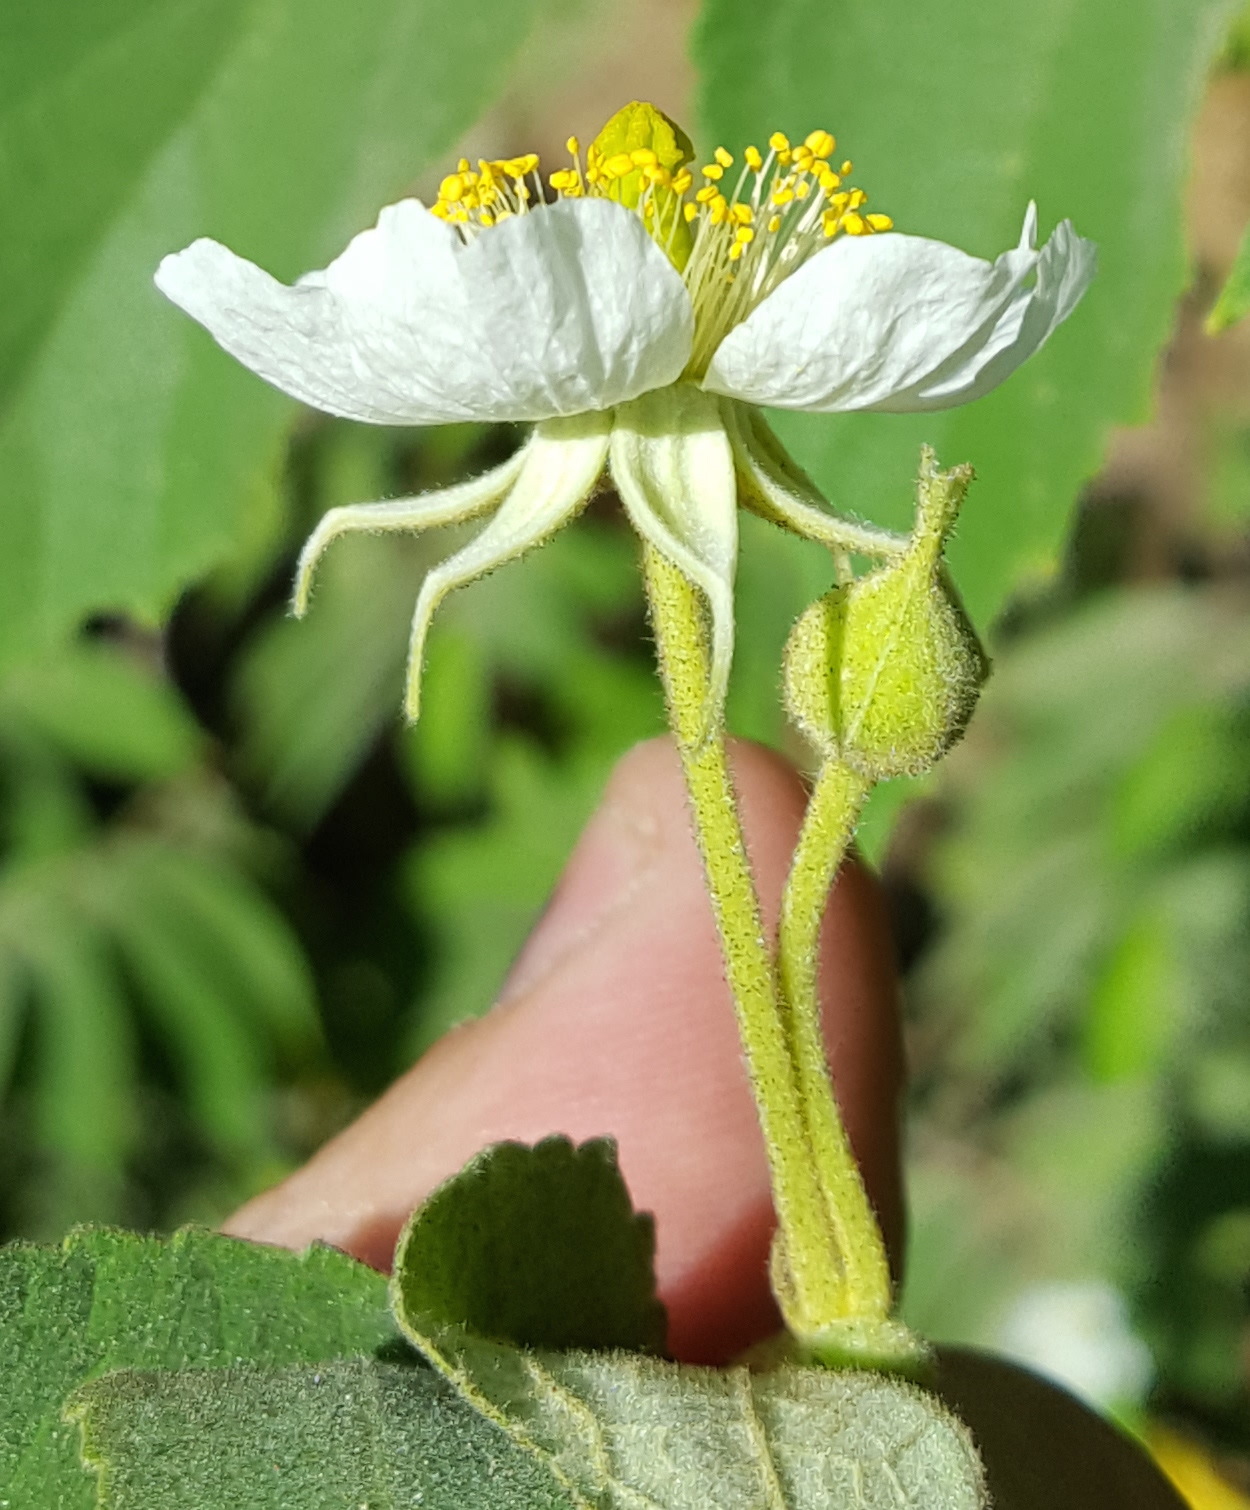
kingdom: Plantae
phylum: Tracheophyta
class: Magnoliopsida
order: Malvales
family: Muntingiaceae
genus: Muntingia
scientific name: Muntingia calabura
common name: Strawberrytree
